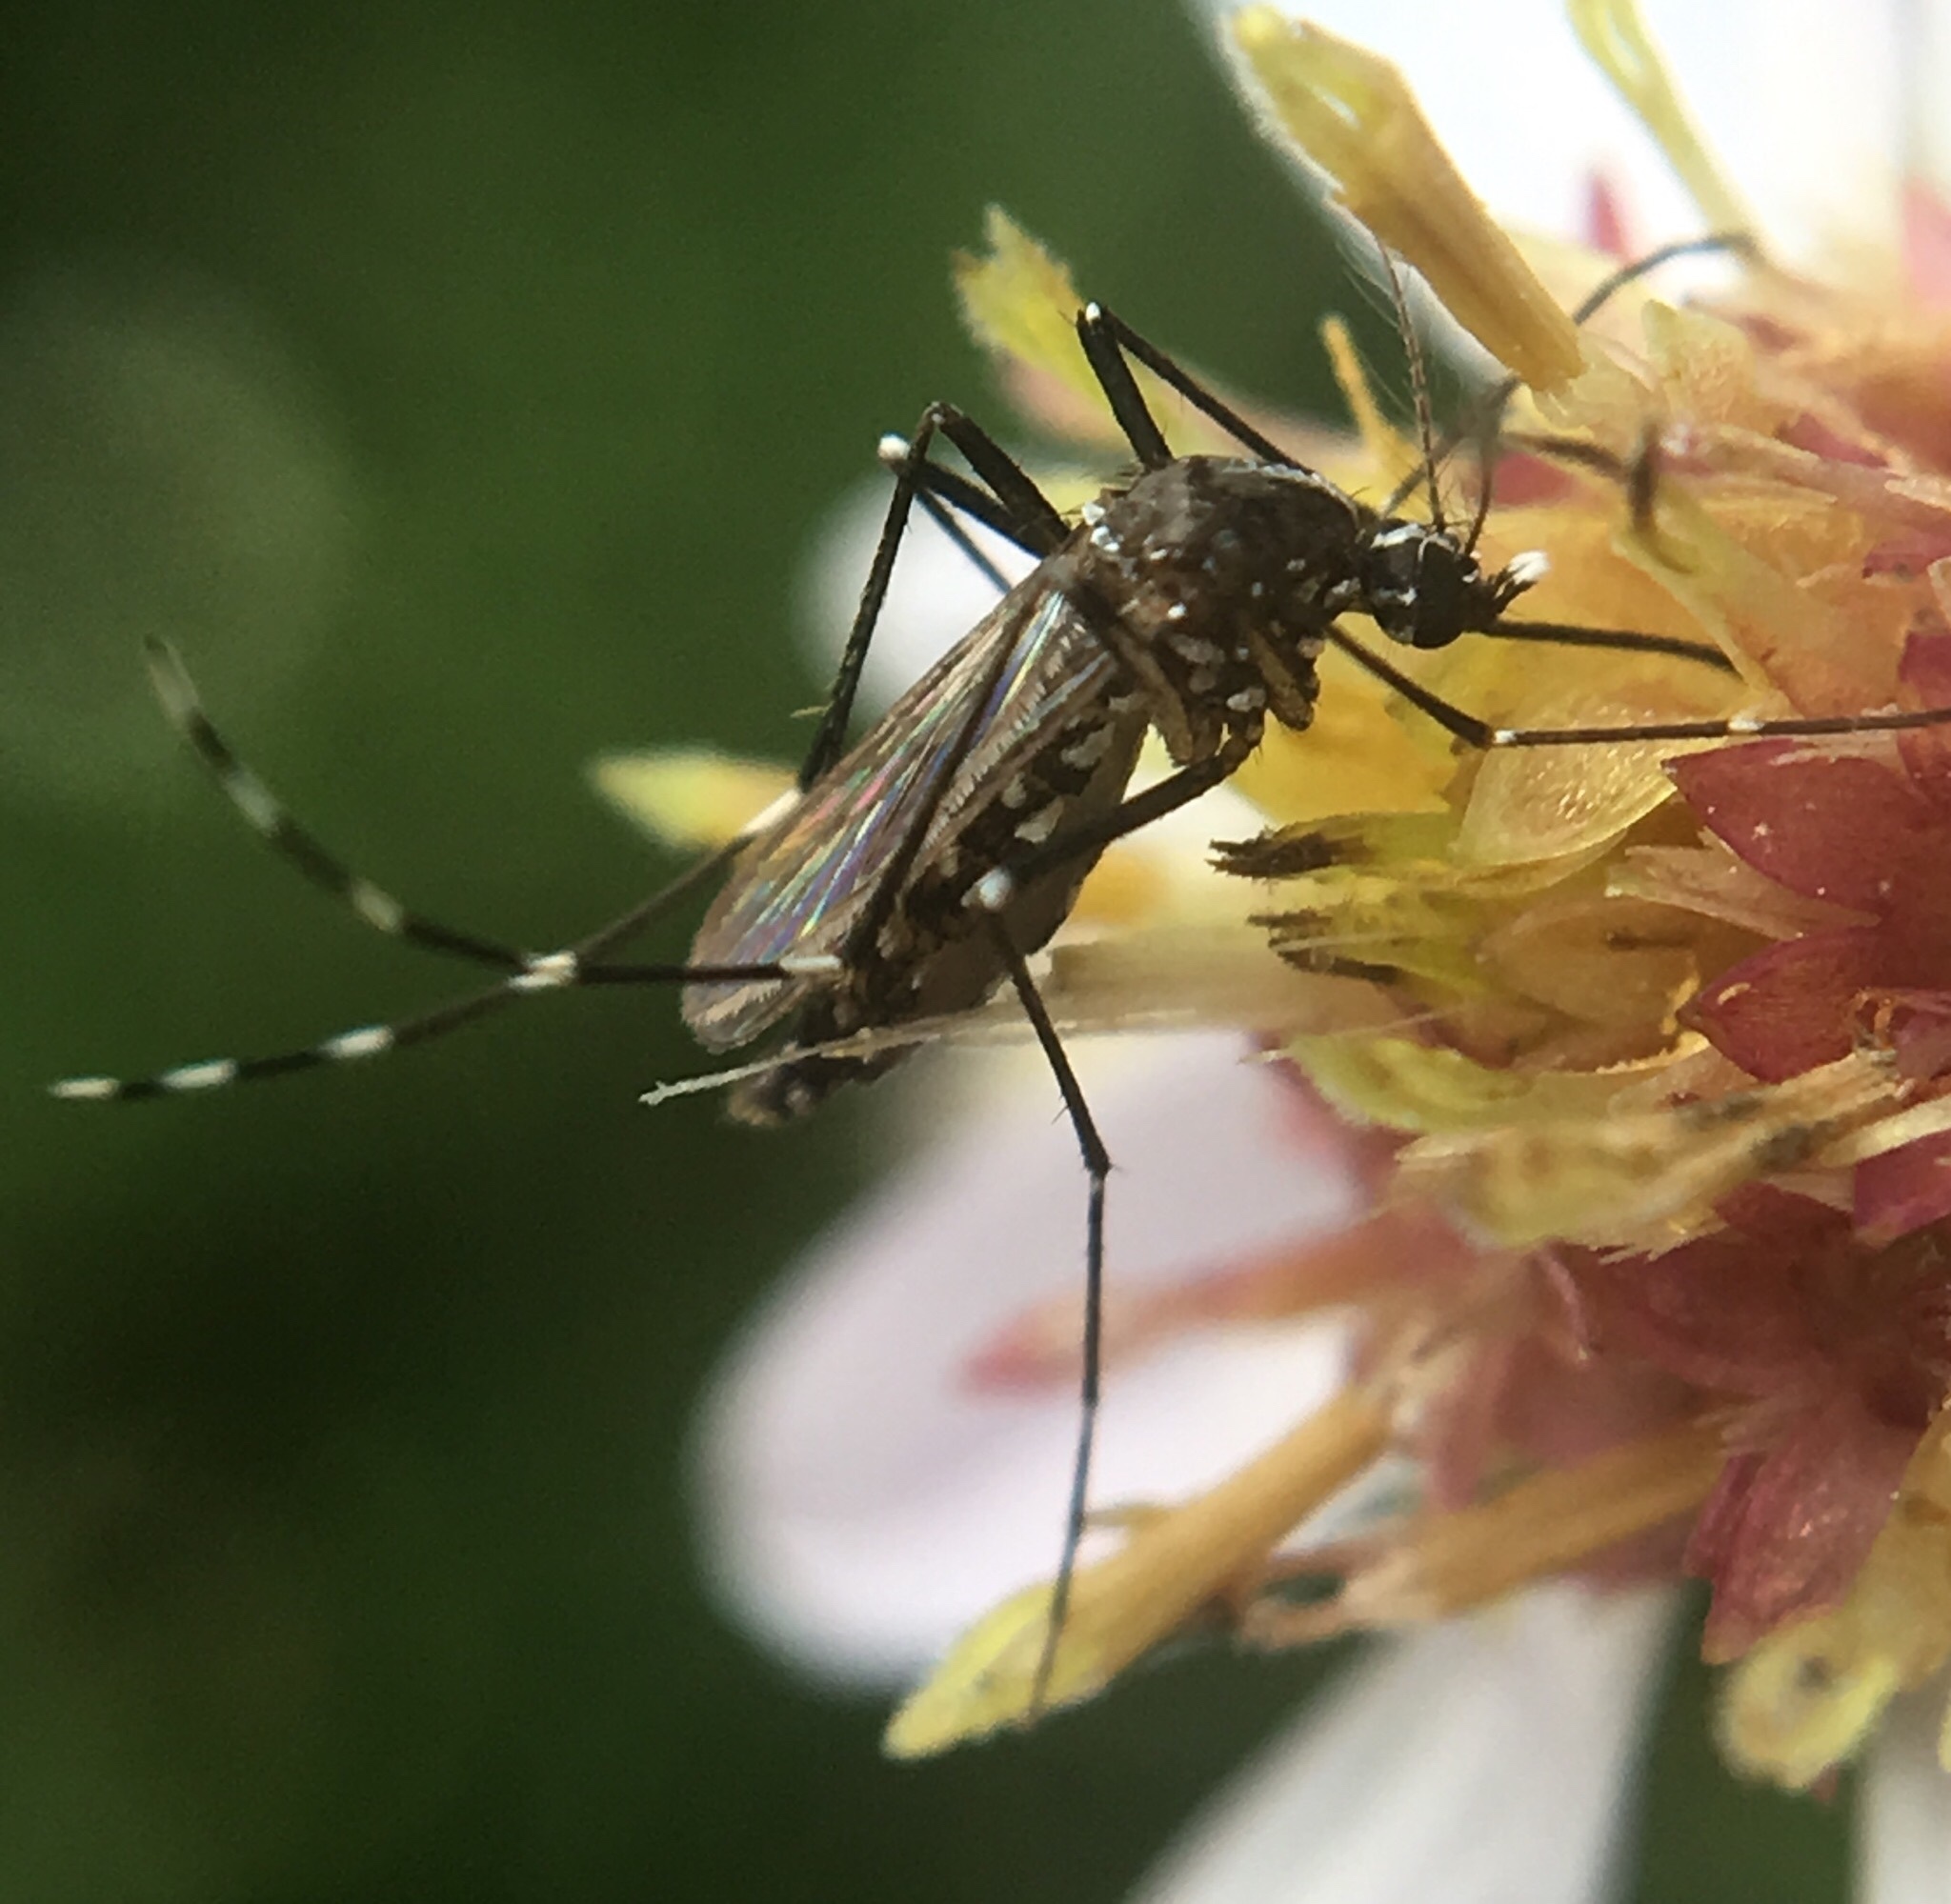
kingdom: Animalia
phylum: Arthropoda
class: Insecta
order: Diptera
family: Culicidae
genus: Aedes
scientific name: Aedes albopictus
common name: Tiger mosquito
